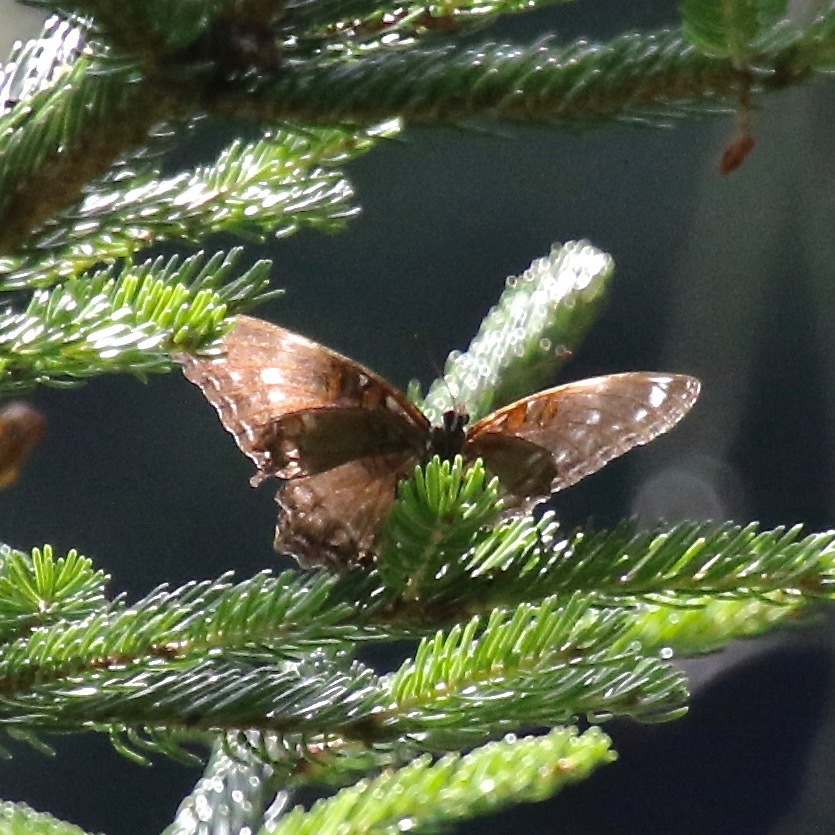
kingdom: Animalia
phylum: Arthropoda
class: Insecta
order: Lepidoptera
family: Nymphalidae
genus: Limenitis
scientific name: Limenitis arthemis
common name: Red-spotted admiral
